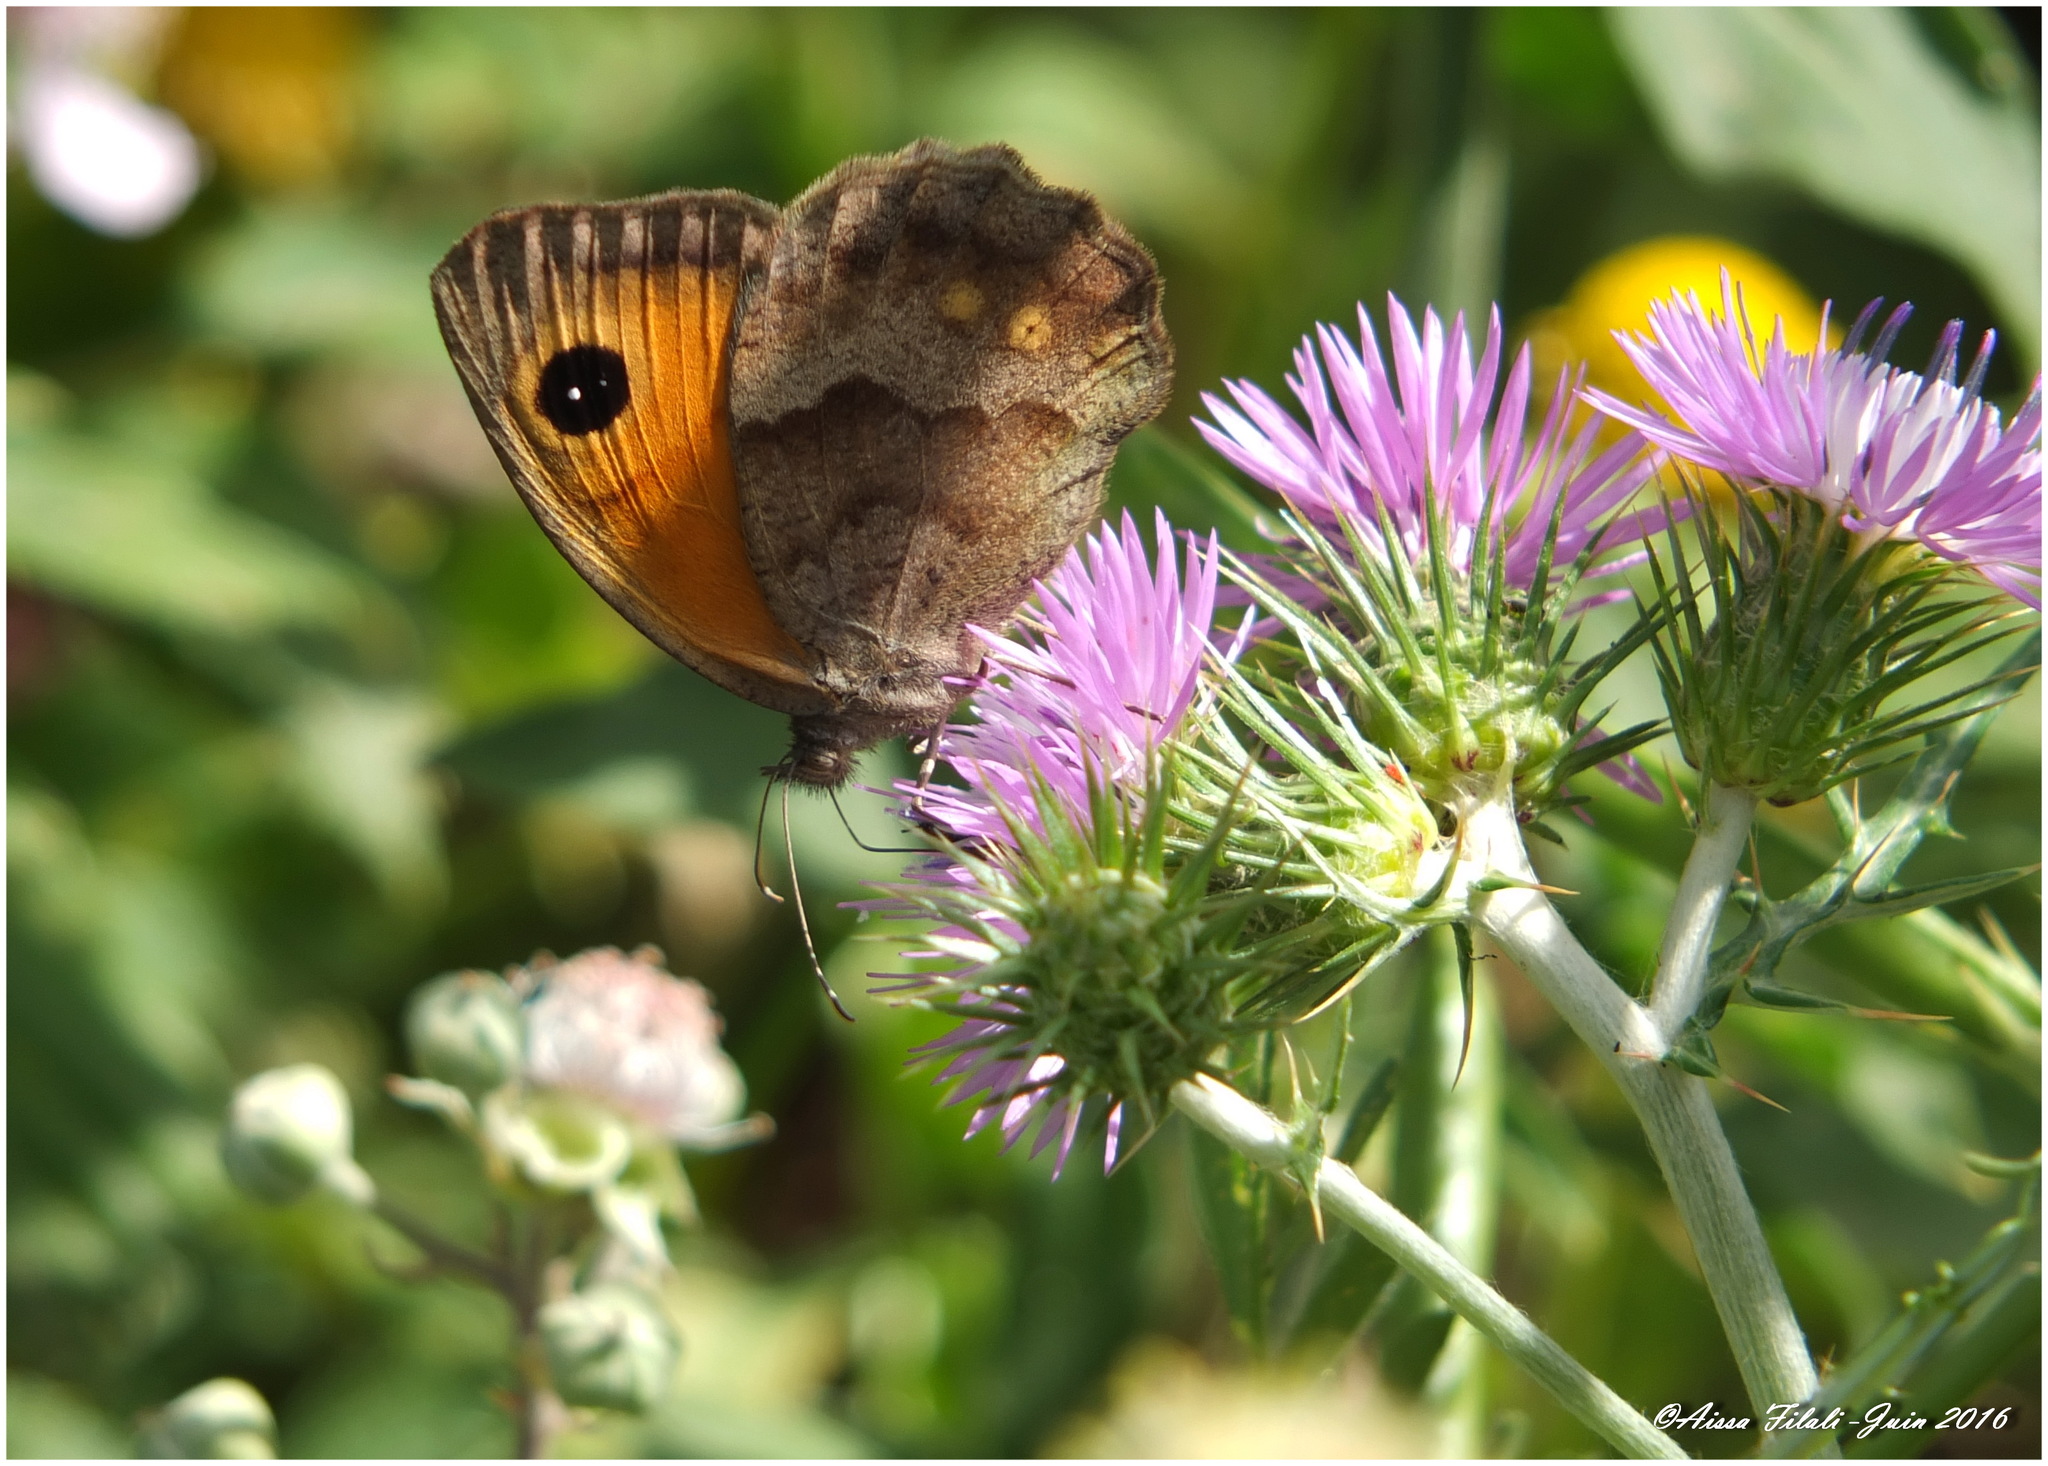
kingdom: Animalia
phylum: Arthropoda
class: Insecta
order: Lepidoptera
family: Nymphalidae
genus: Pyronia
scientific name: Pyronia janiroides
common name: False meadow brown
